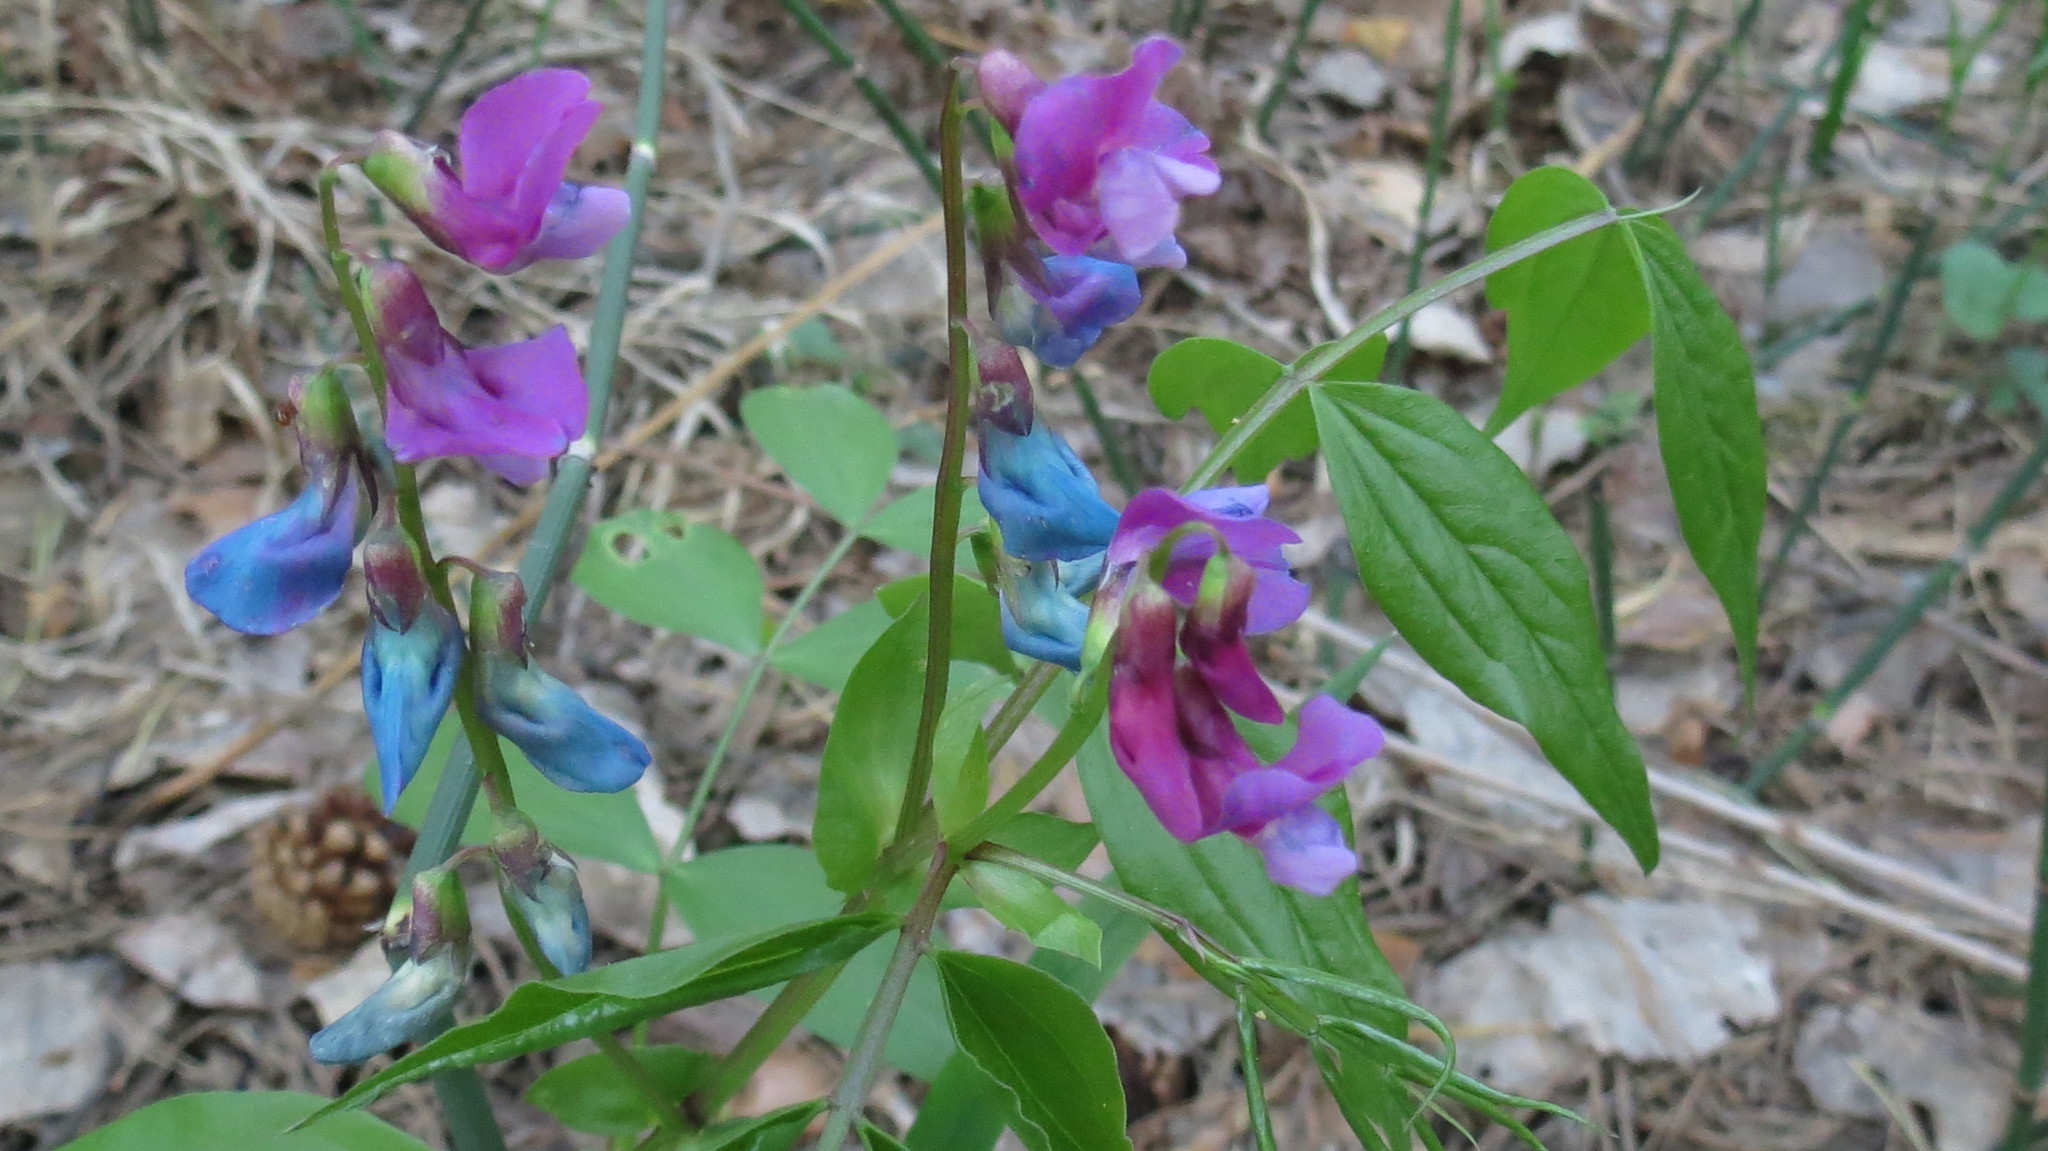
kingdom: Plantae
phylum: Tracheophyta
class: Magnoliopsida
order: Fabales
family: Fabaceae
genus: Lathyrus
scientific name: Lathyrus vernus
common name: Spring pea
